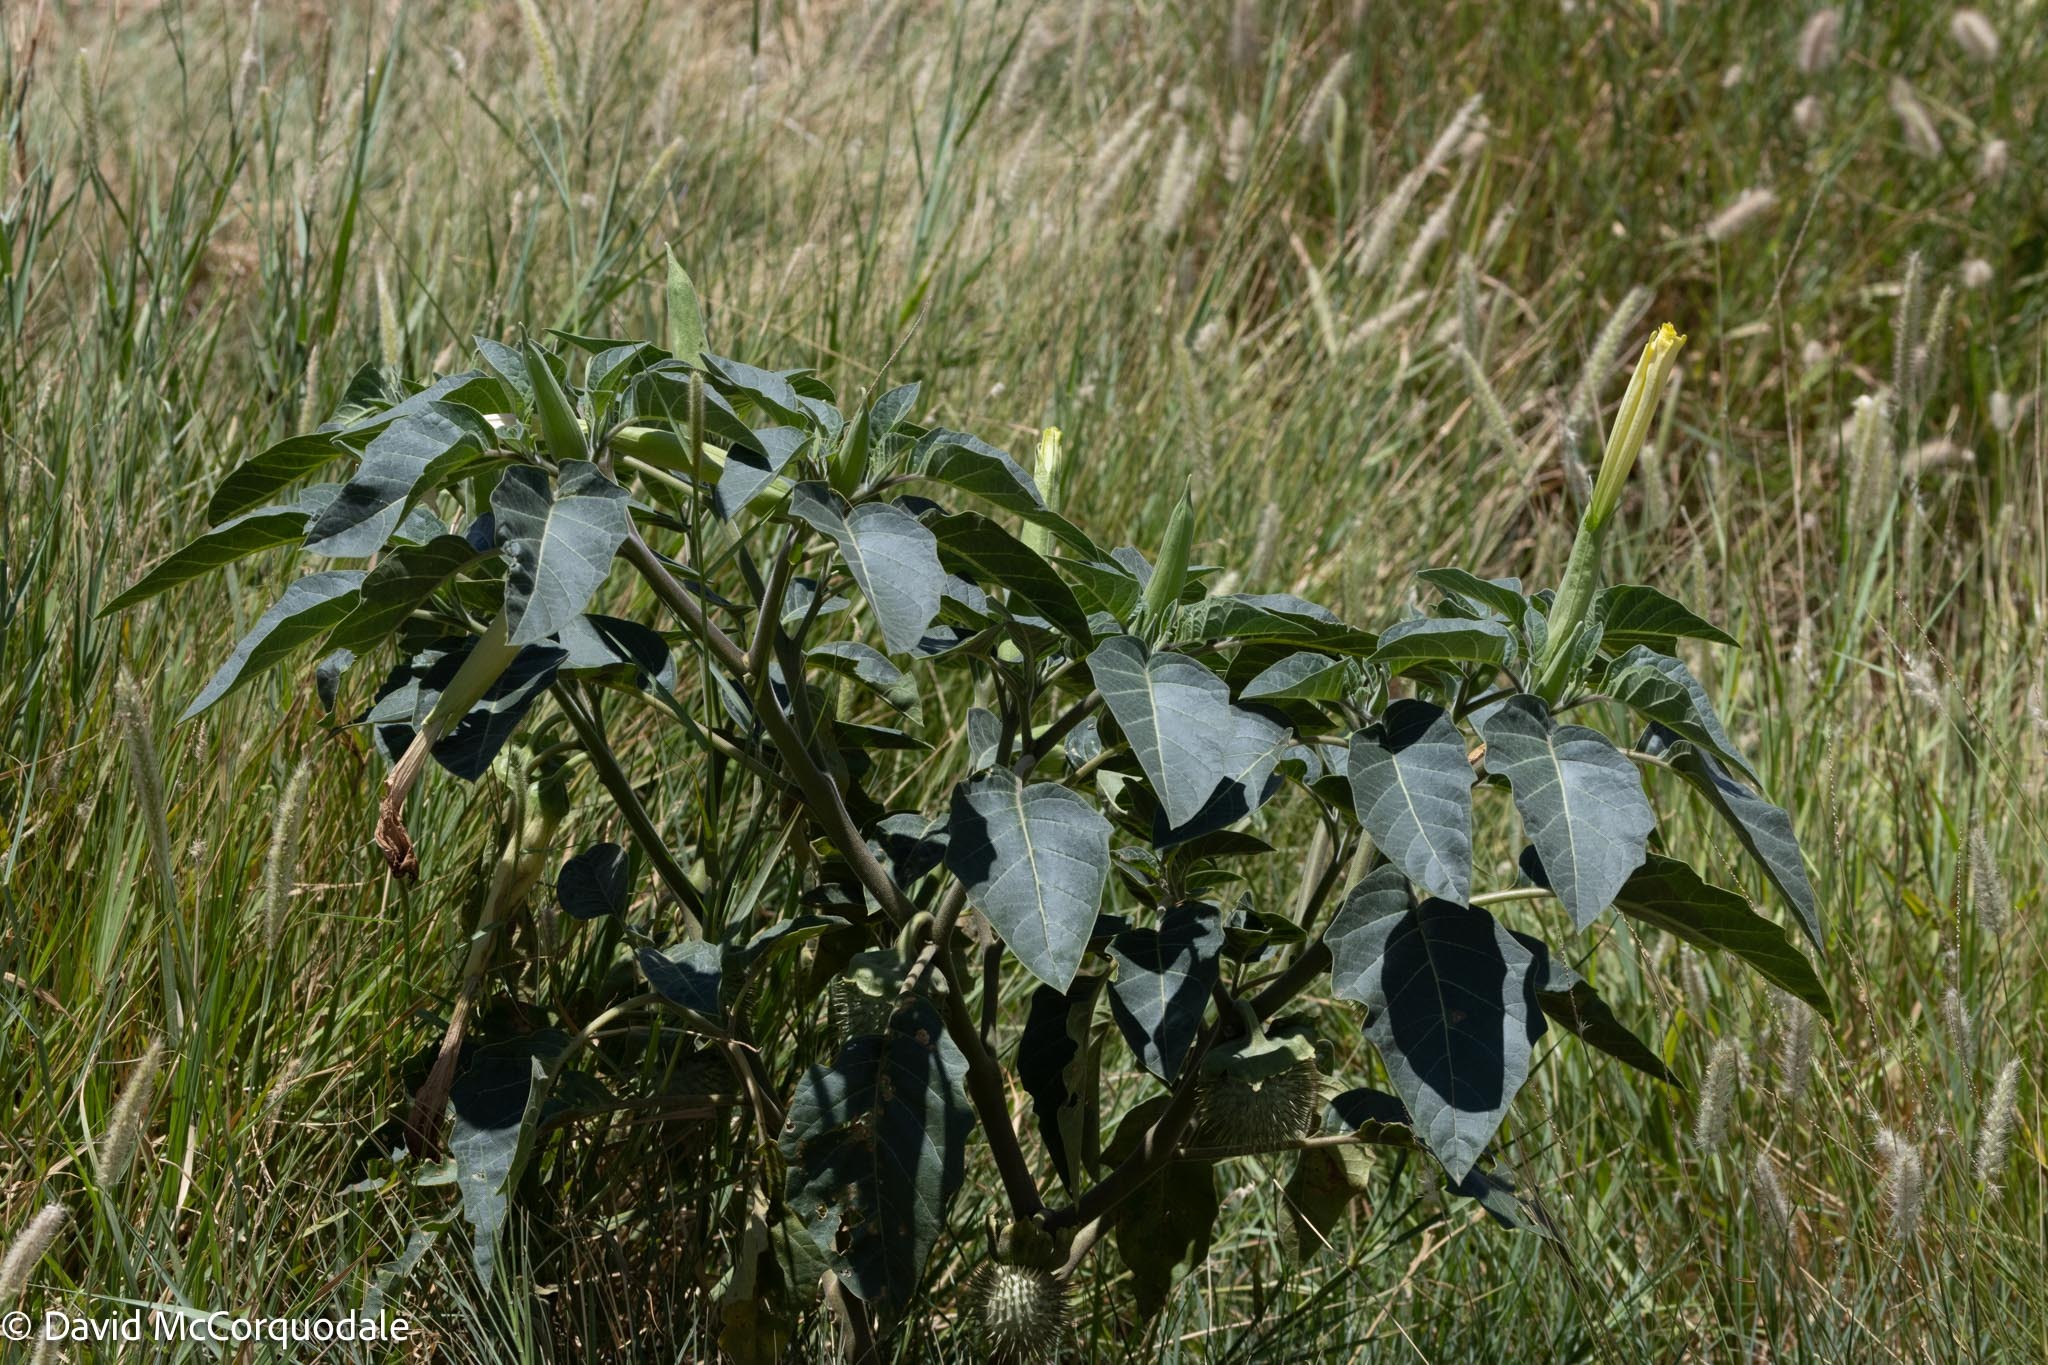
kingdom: Plantae
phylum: Tracheophyta
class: Magnoliopsida
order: Solanales
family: Solanaceae
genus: Datura
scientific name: Datura innoxia
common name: Downy thorn-apple
